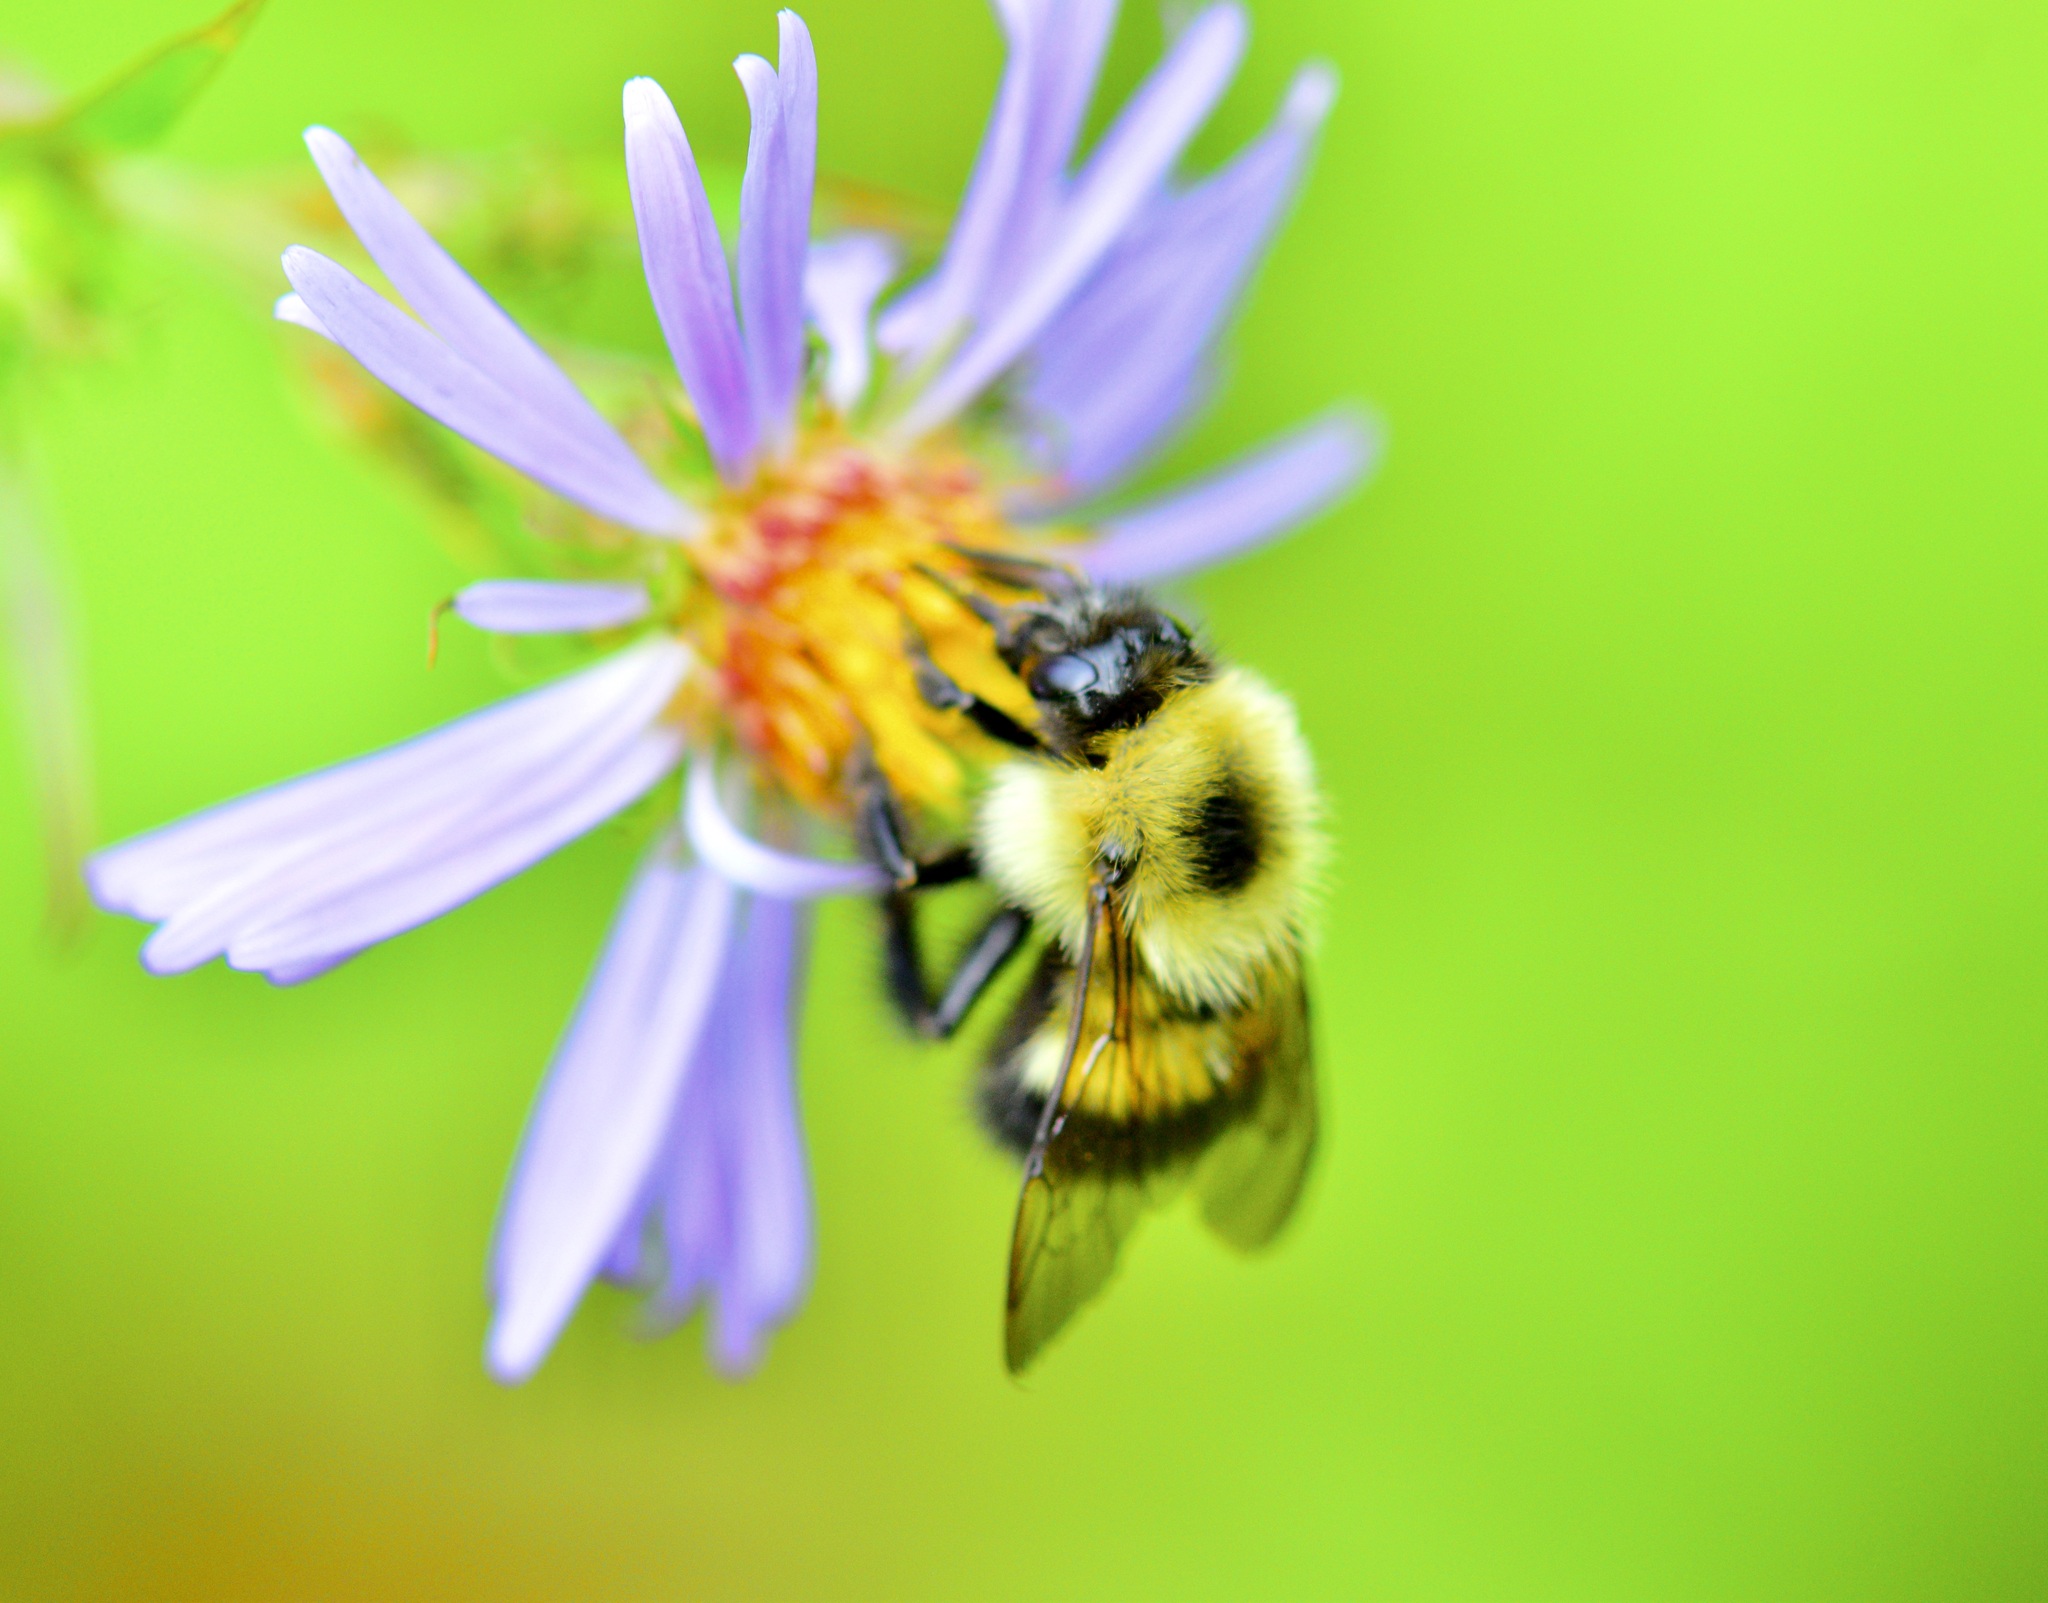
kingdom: Animalia
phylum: Arthropoda
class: Insecta
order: Hymenoptera
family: Apidae
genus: Bombus
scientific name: Bombus vagans
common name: Half-black bumble bee
